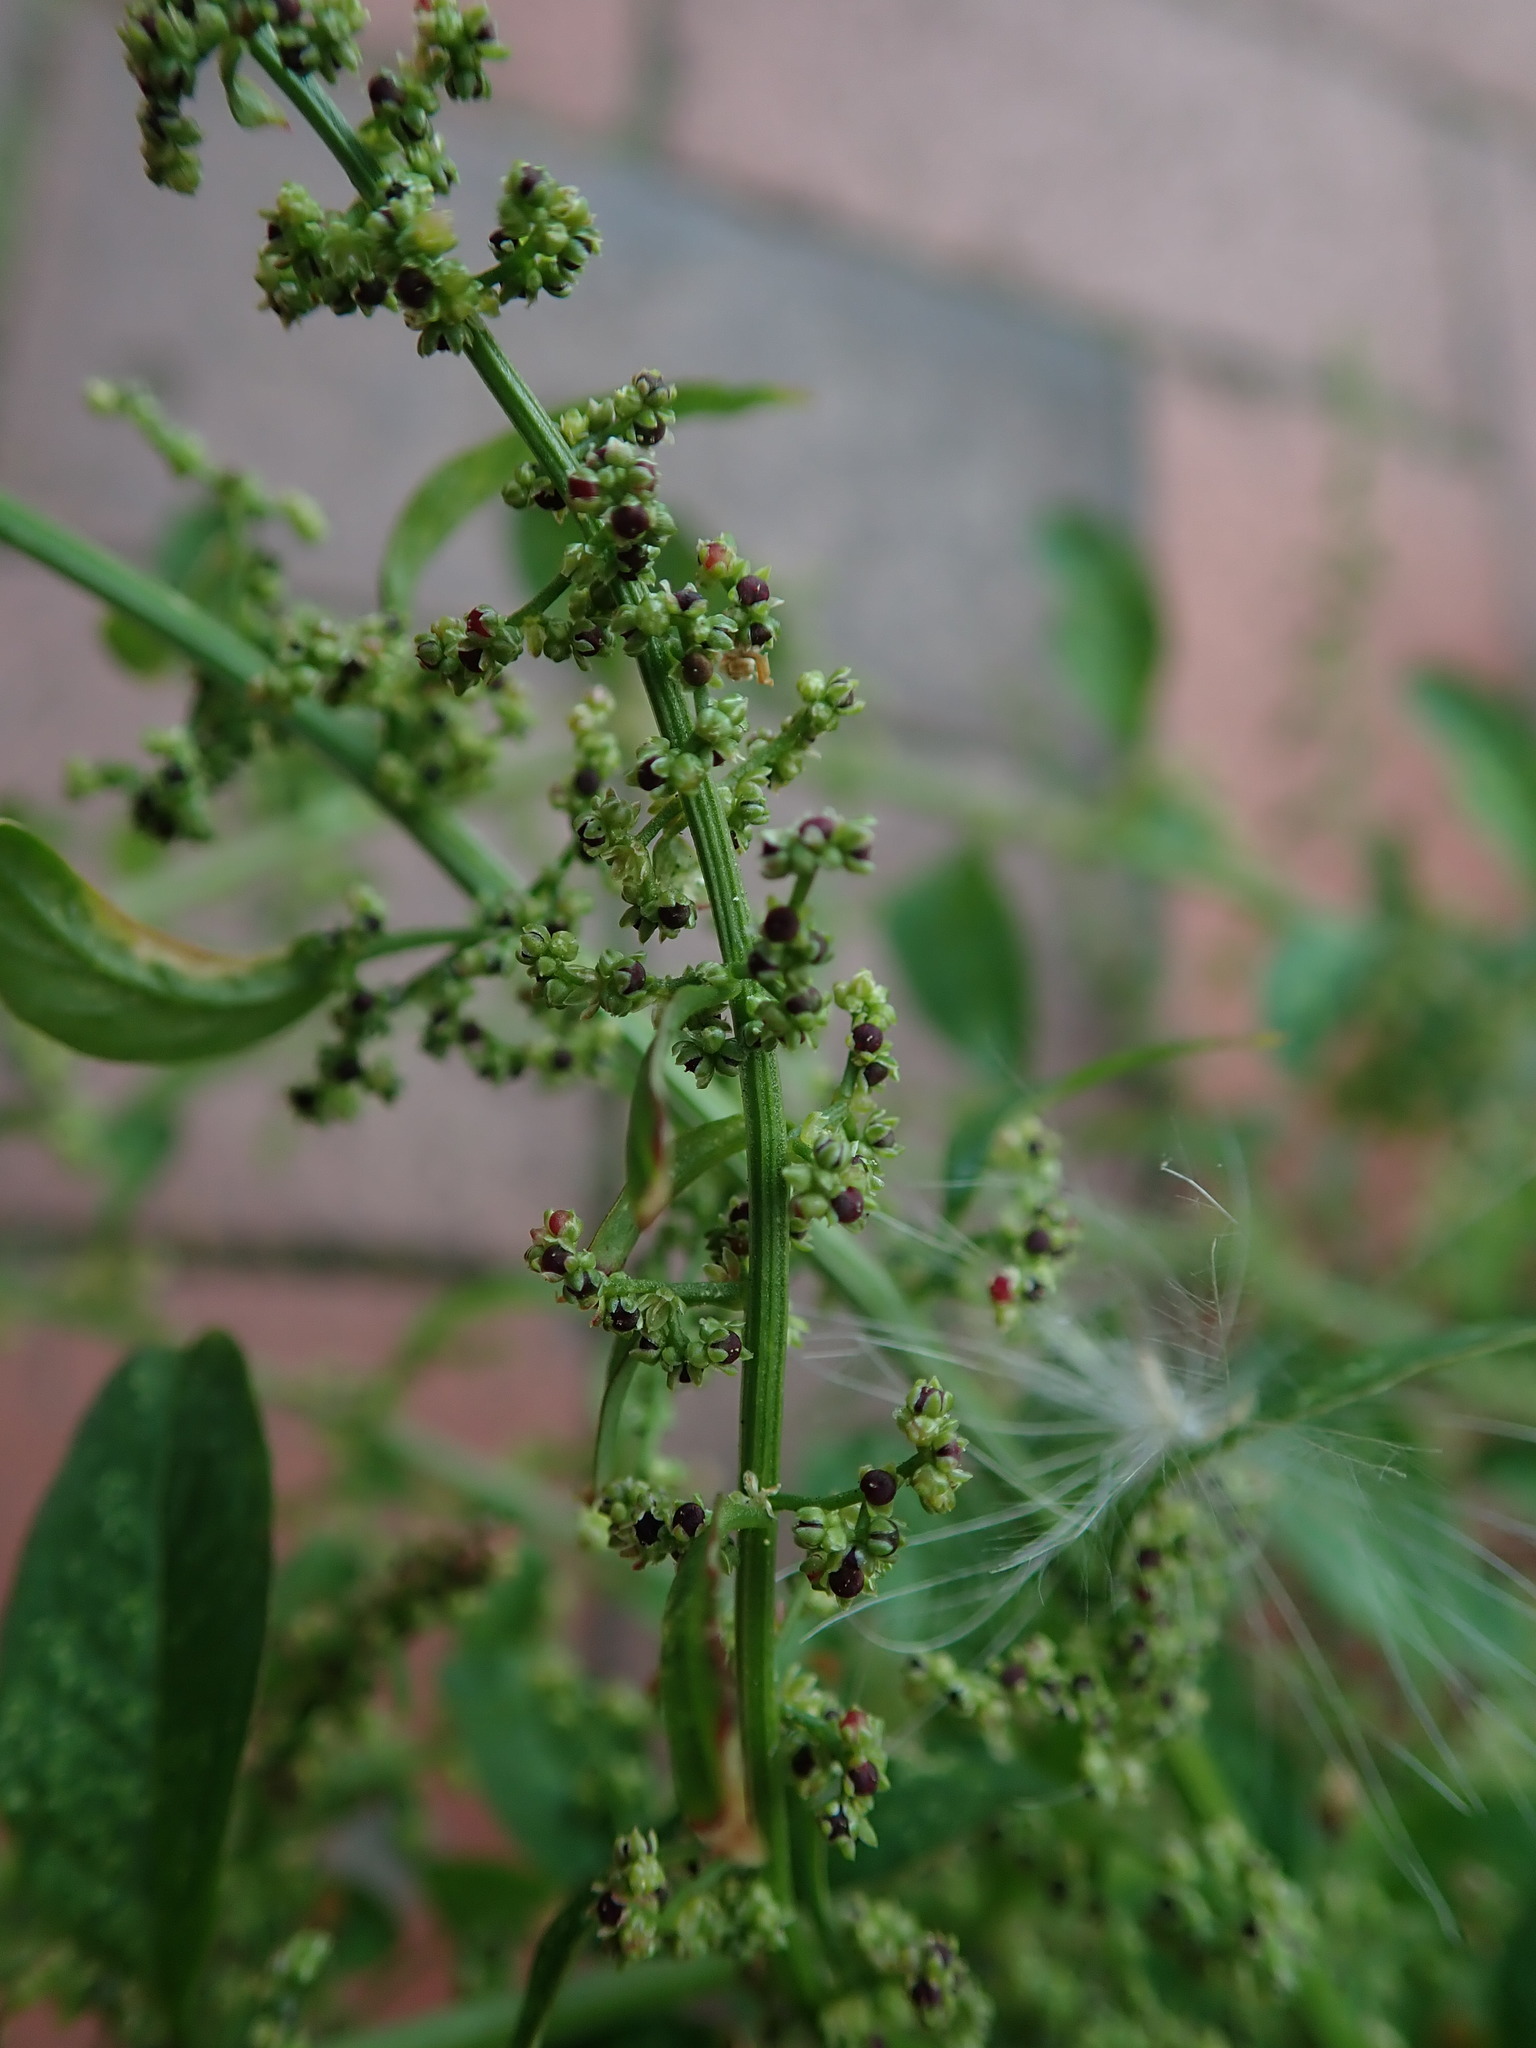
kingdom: Plantae
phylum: Tracheophyta
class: Magnoliopsida
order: Caryophyllales
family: Amaranthaceae
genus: Lipandra
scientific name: Lipandra polysperma
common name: Many-seed goosefoot
